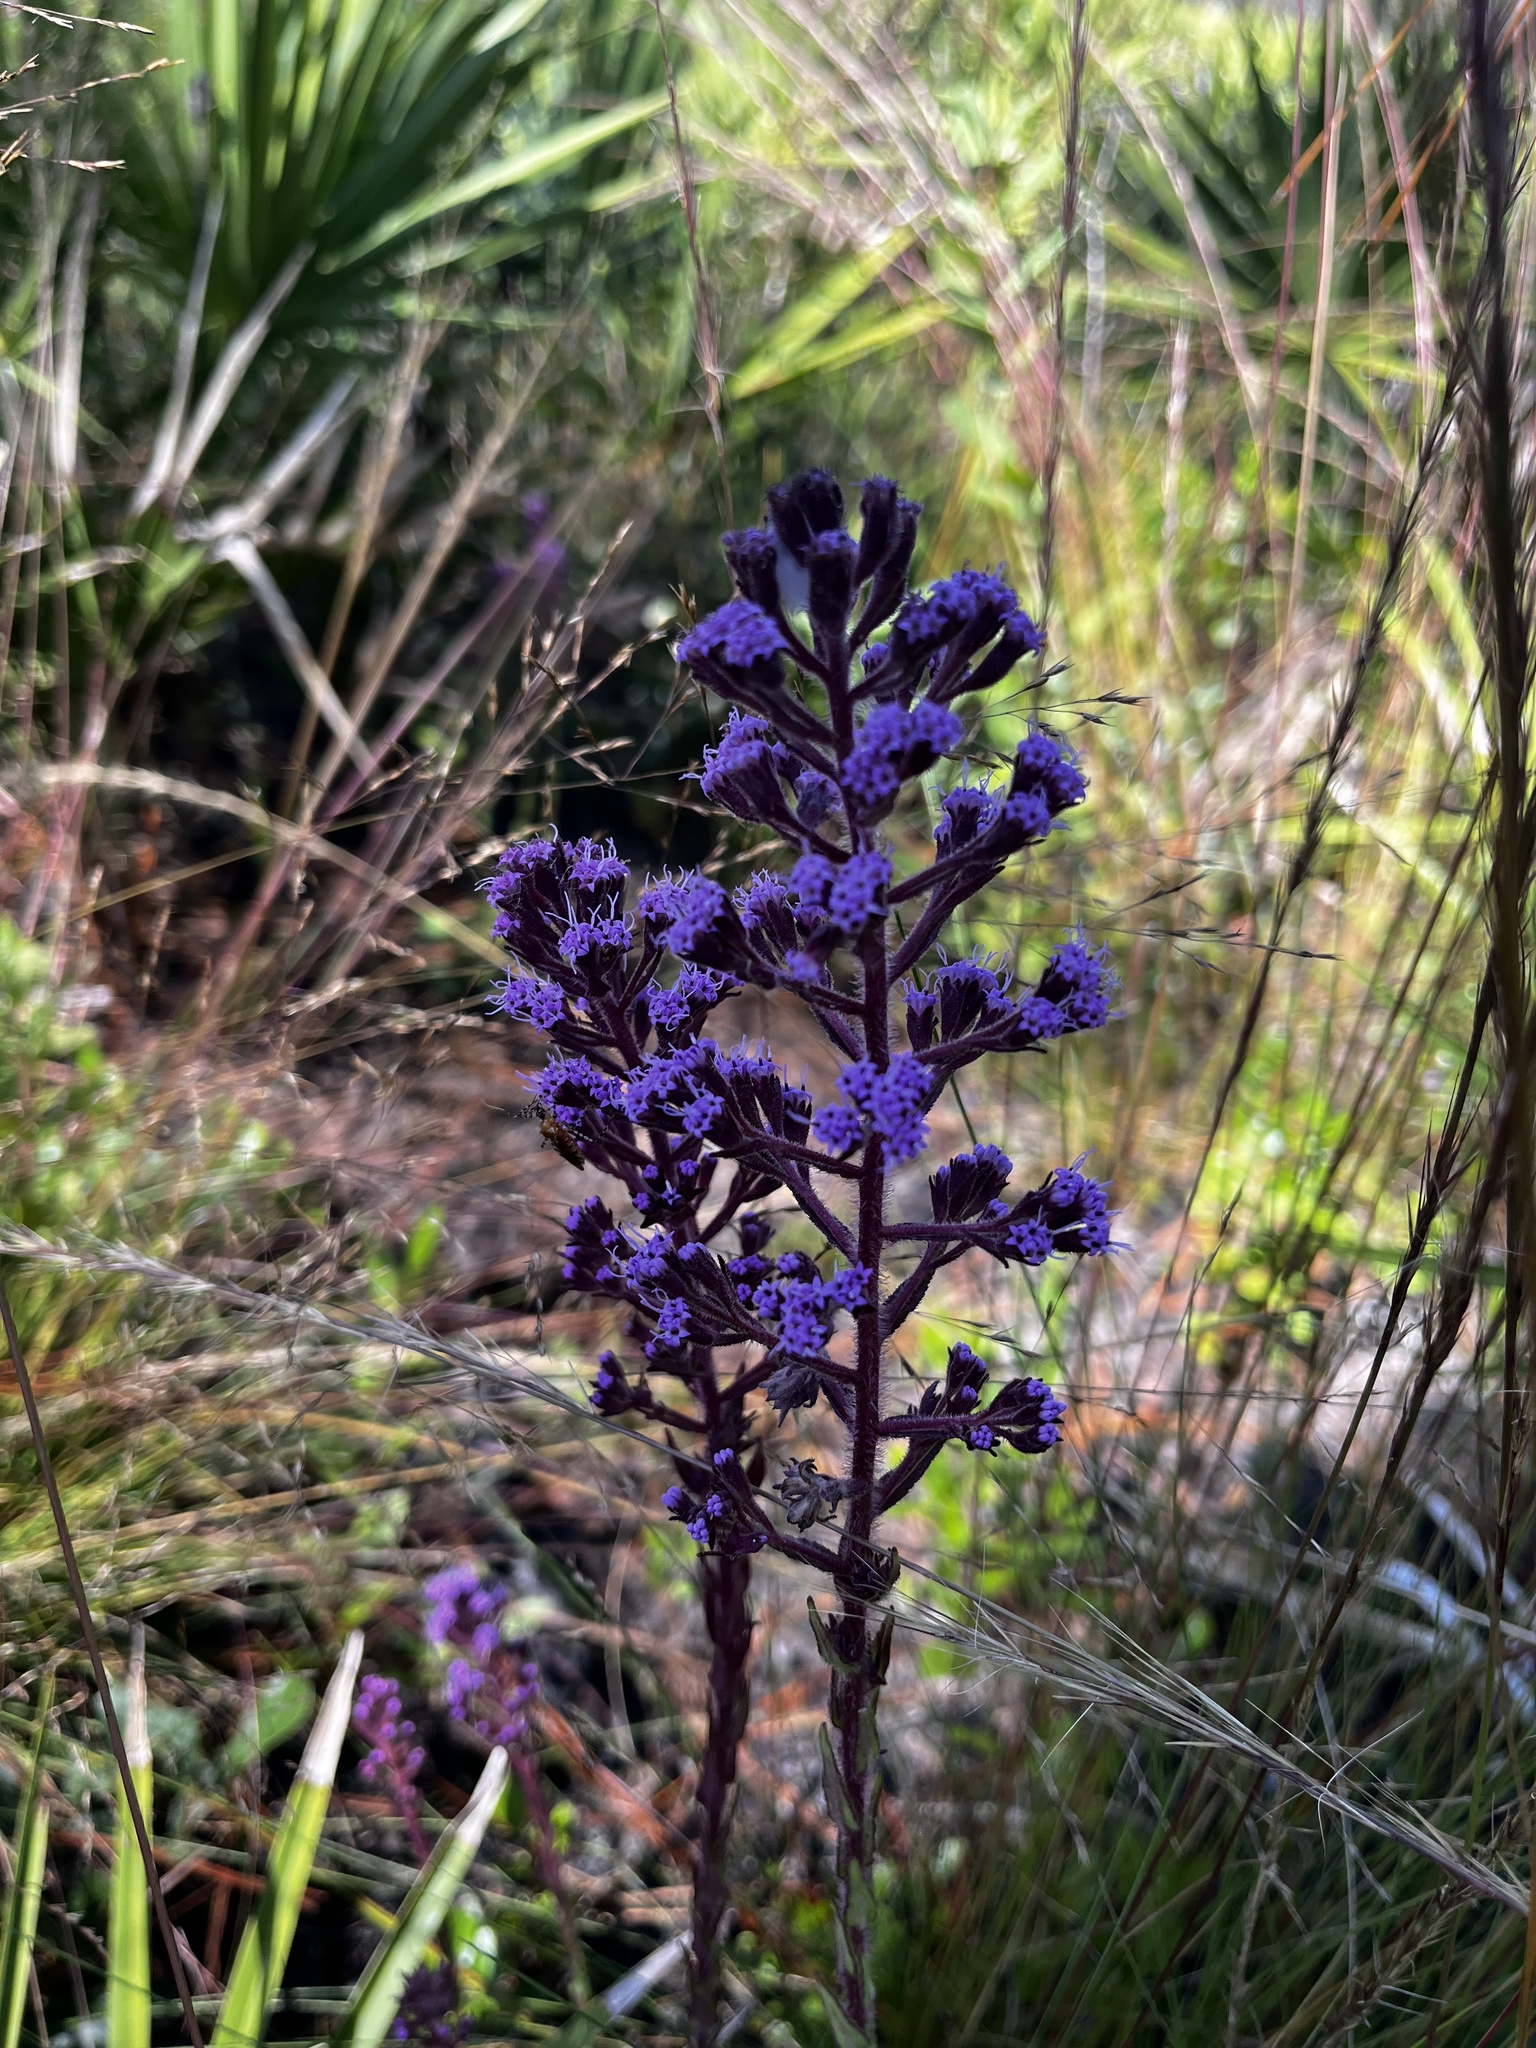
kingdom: Plantae
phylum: Tracheophyta
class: Magnoliopsida
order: Asterales
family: Asteraceae
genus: Carphephorus
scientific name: Carphephorus paniculatus
